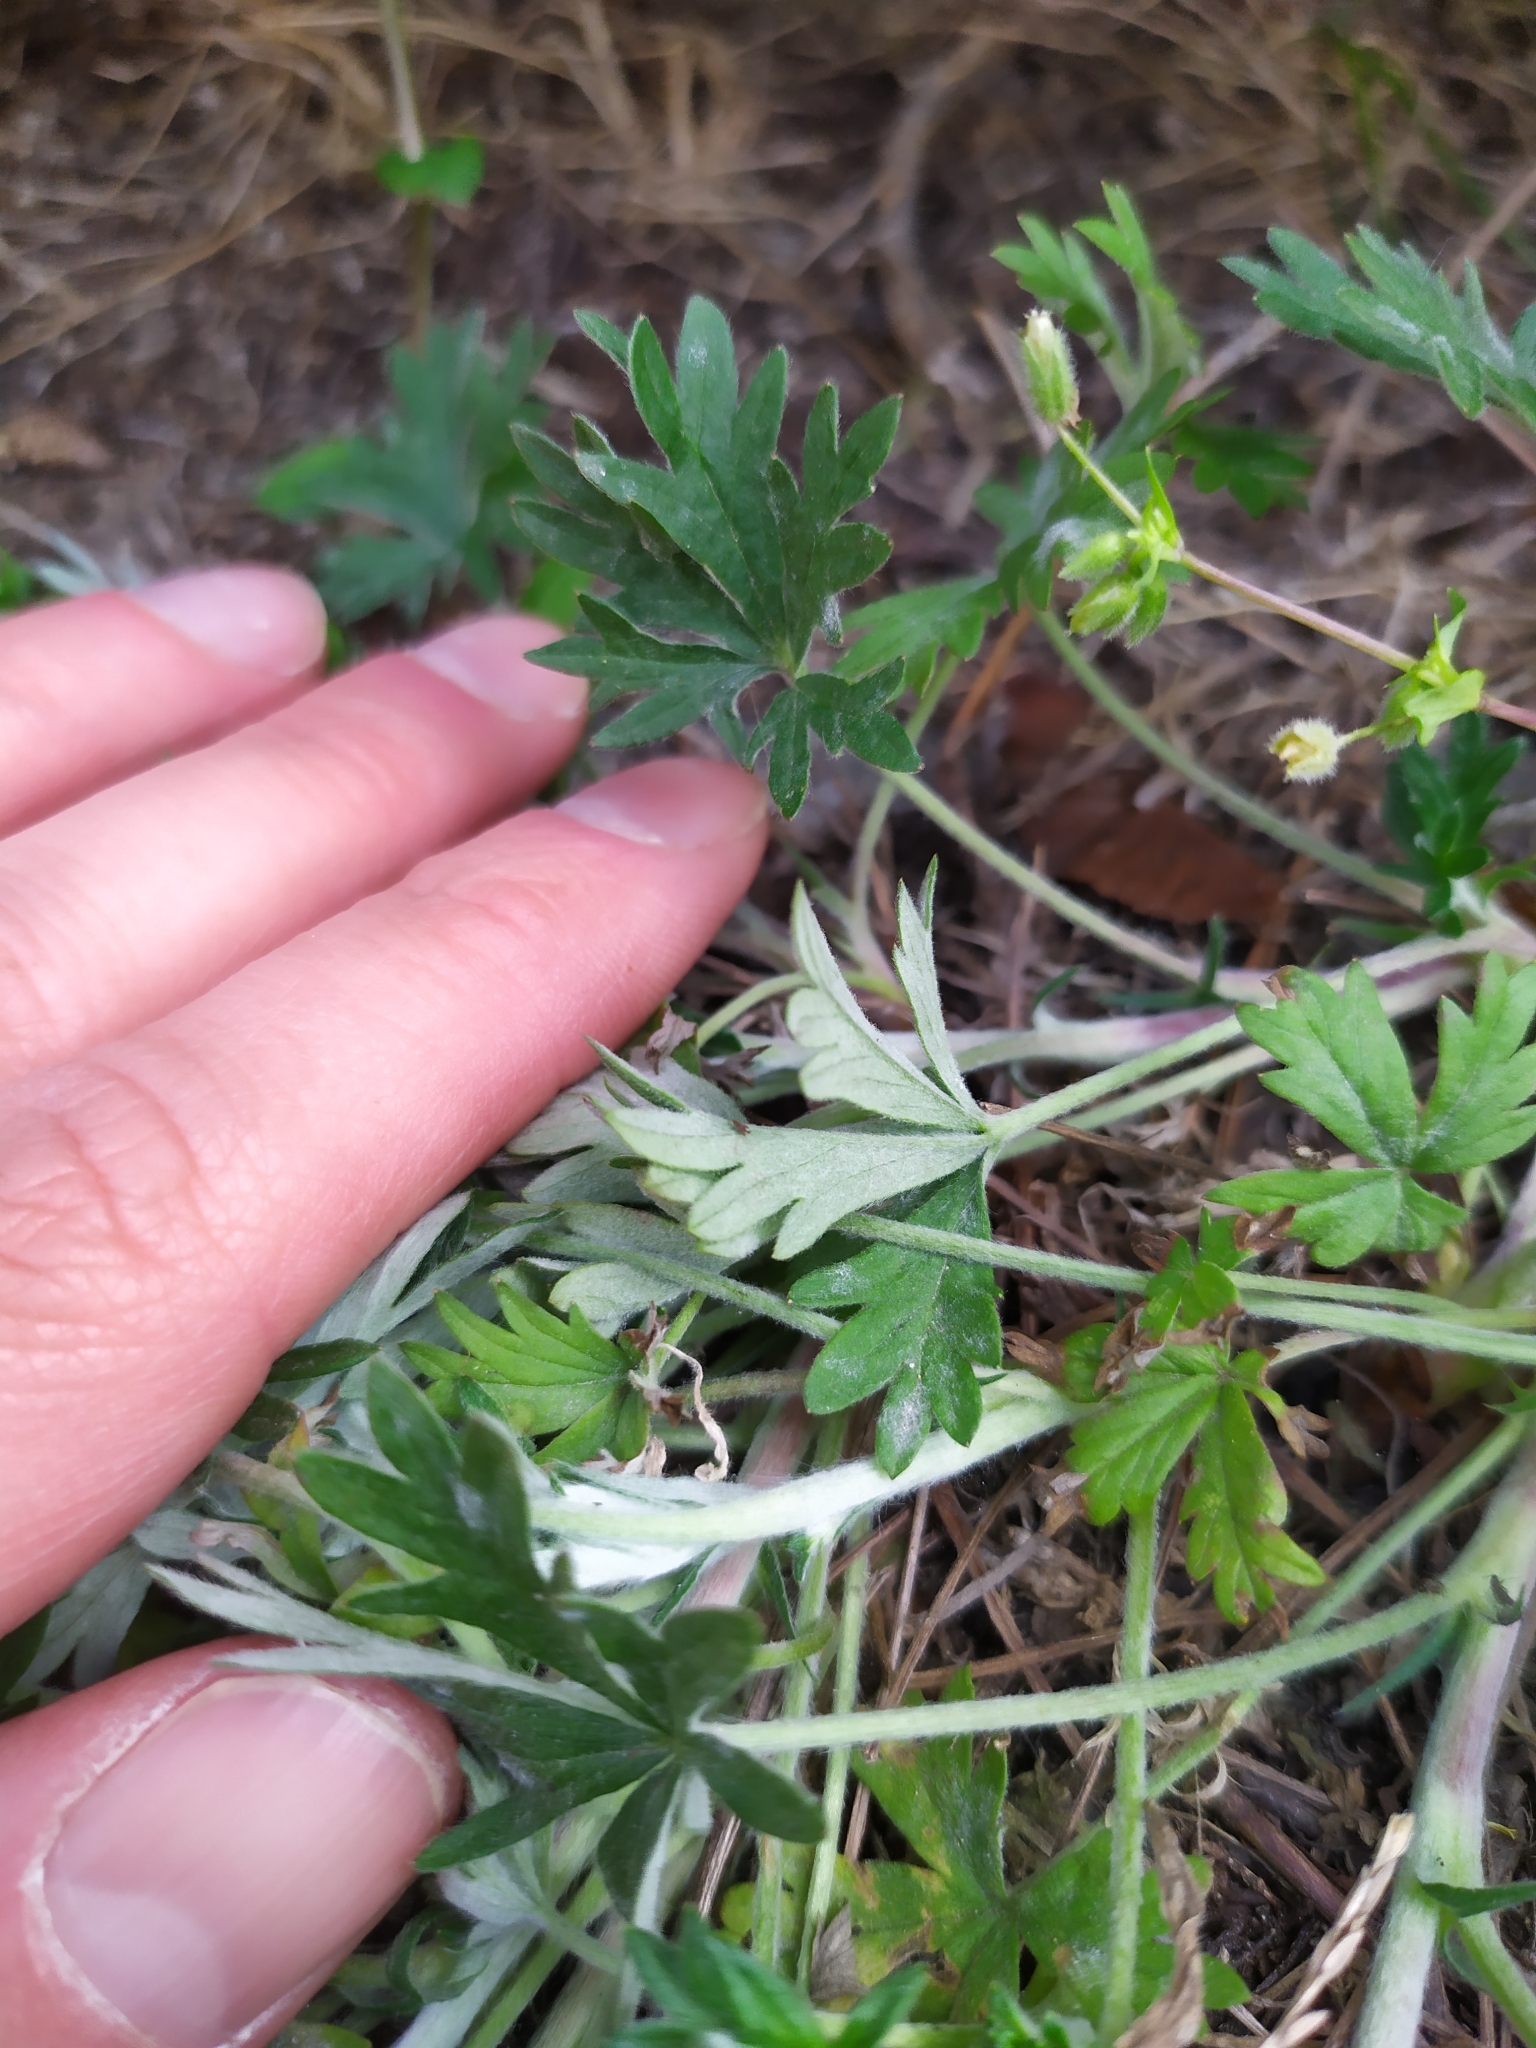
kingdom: Plantae
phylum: Tracheophyta
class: Magnoliopsida
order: Rosales
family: Rosaceae
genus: Potentilla
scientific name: Potentilla argentea
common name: Hoary cinquefoil
